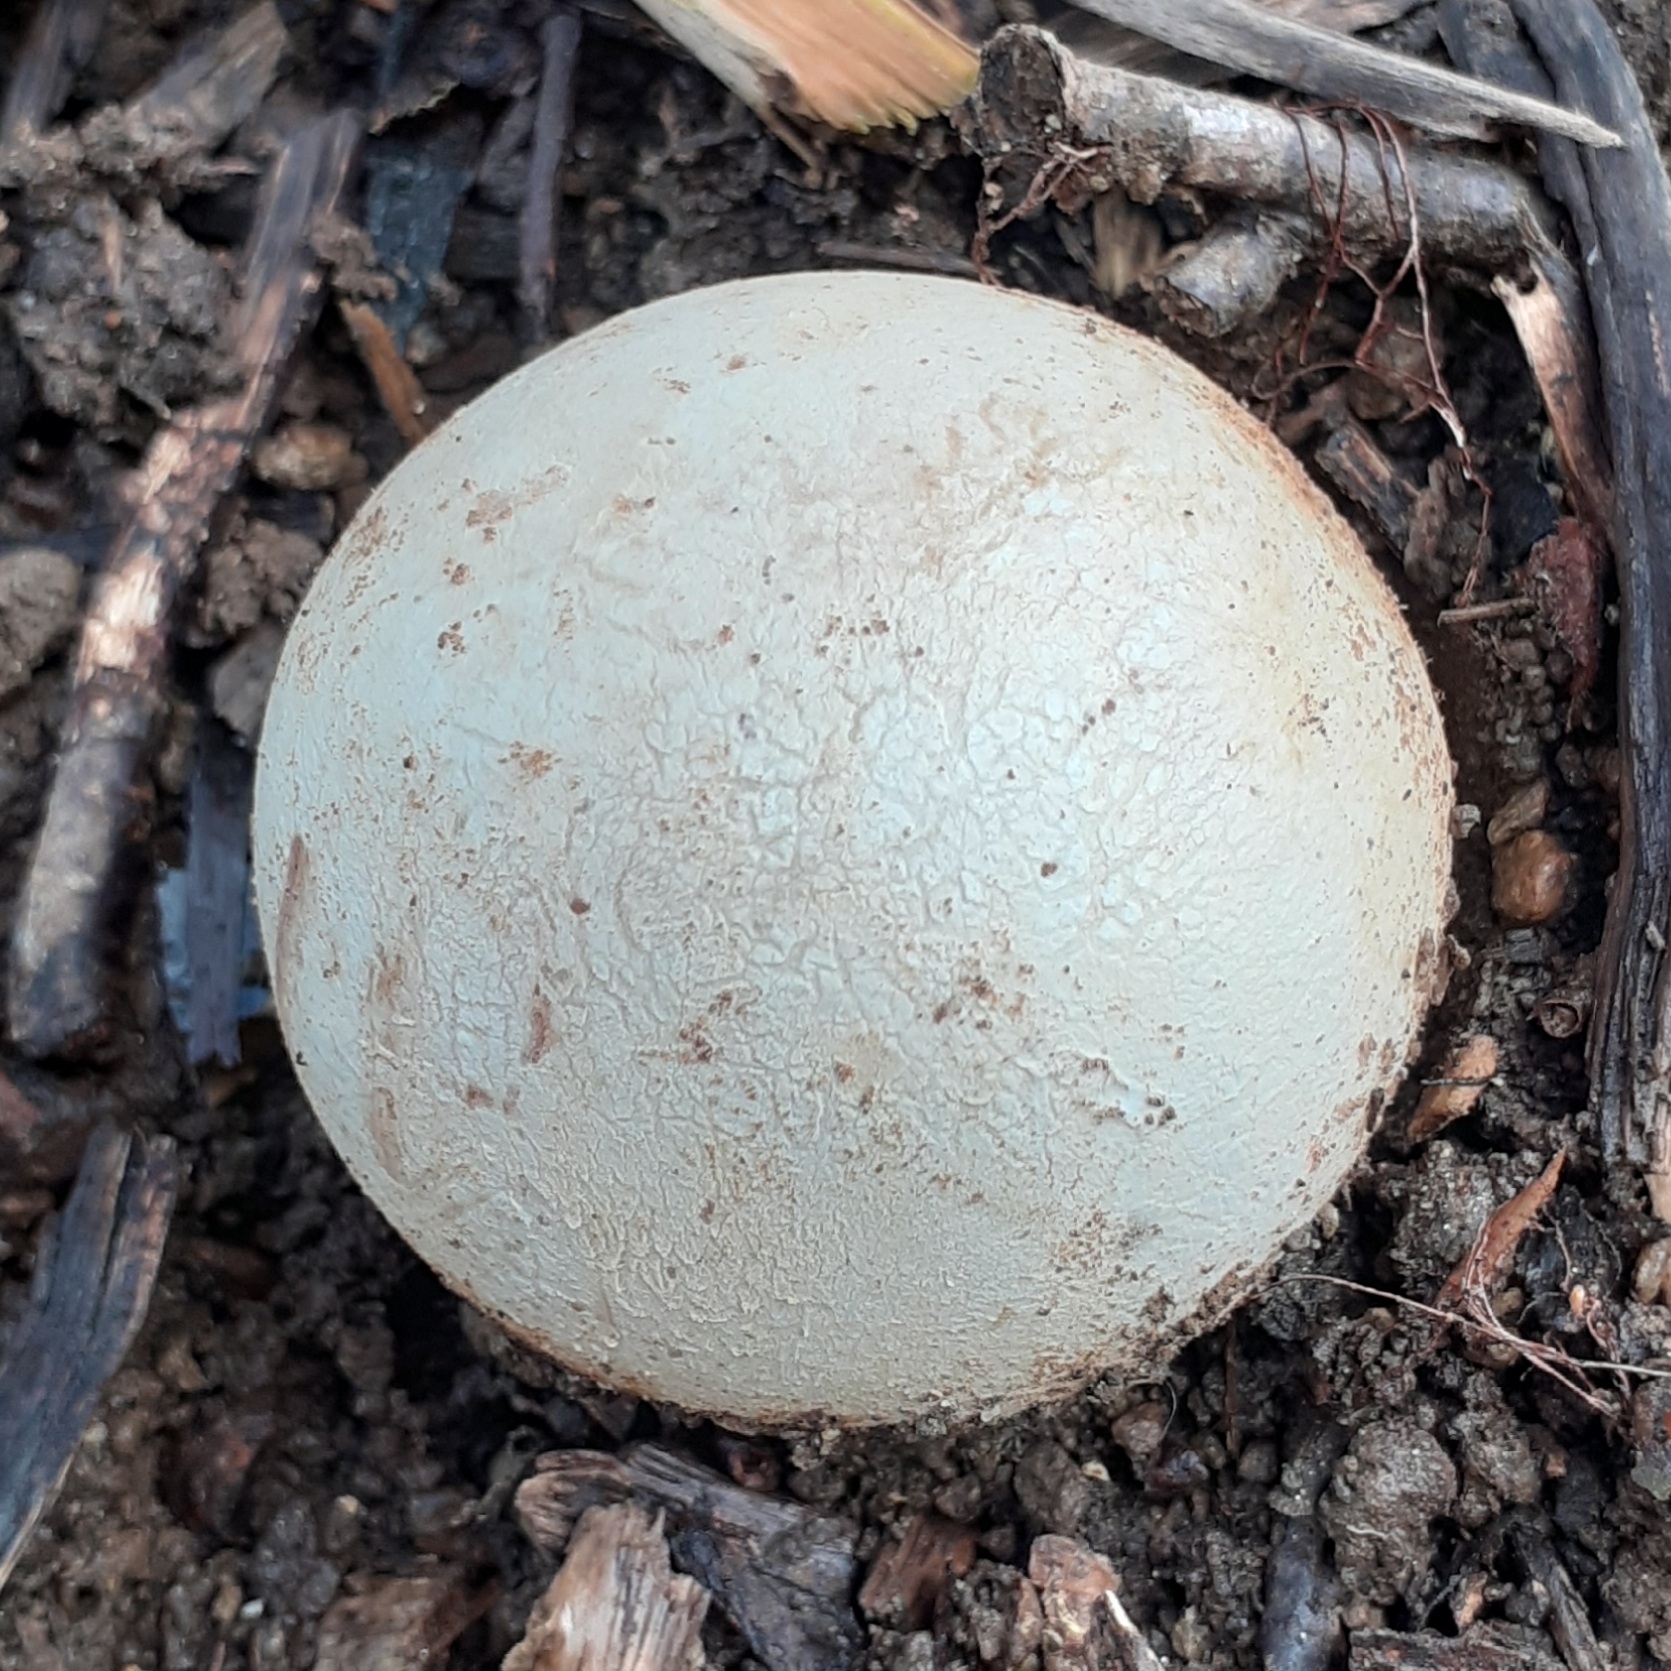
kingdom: Fungi
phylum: Basidiomycota
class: Agaricomycetes
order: Phallales
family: Phallaceae
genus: Phallus
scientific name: Phallus impudicus
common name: Common stinkhorn
